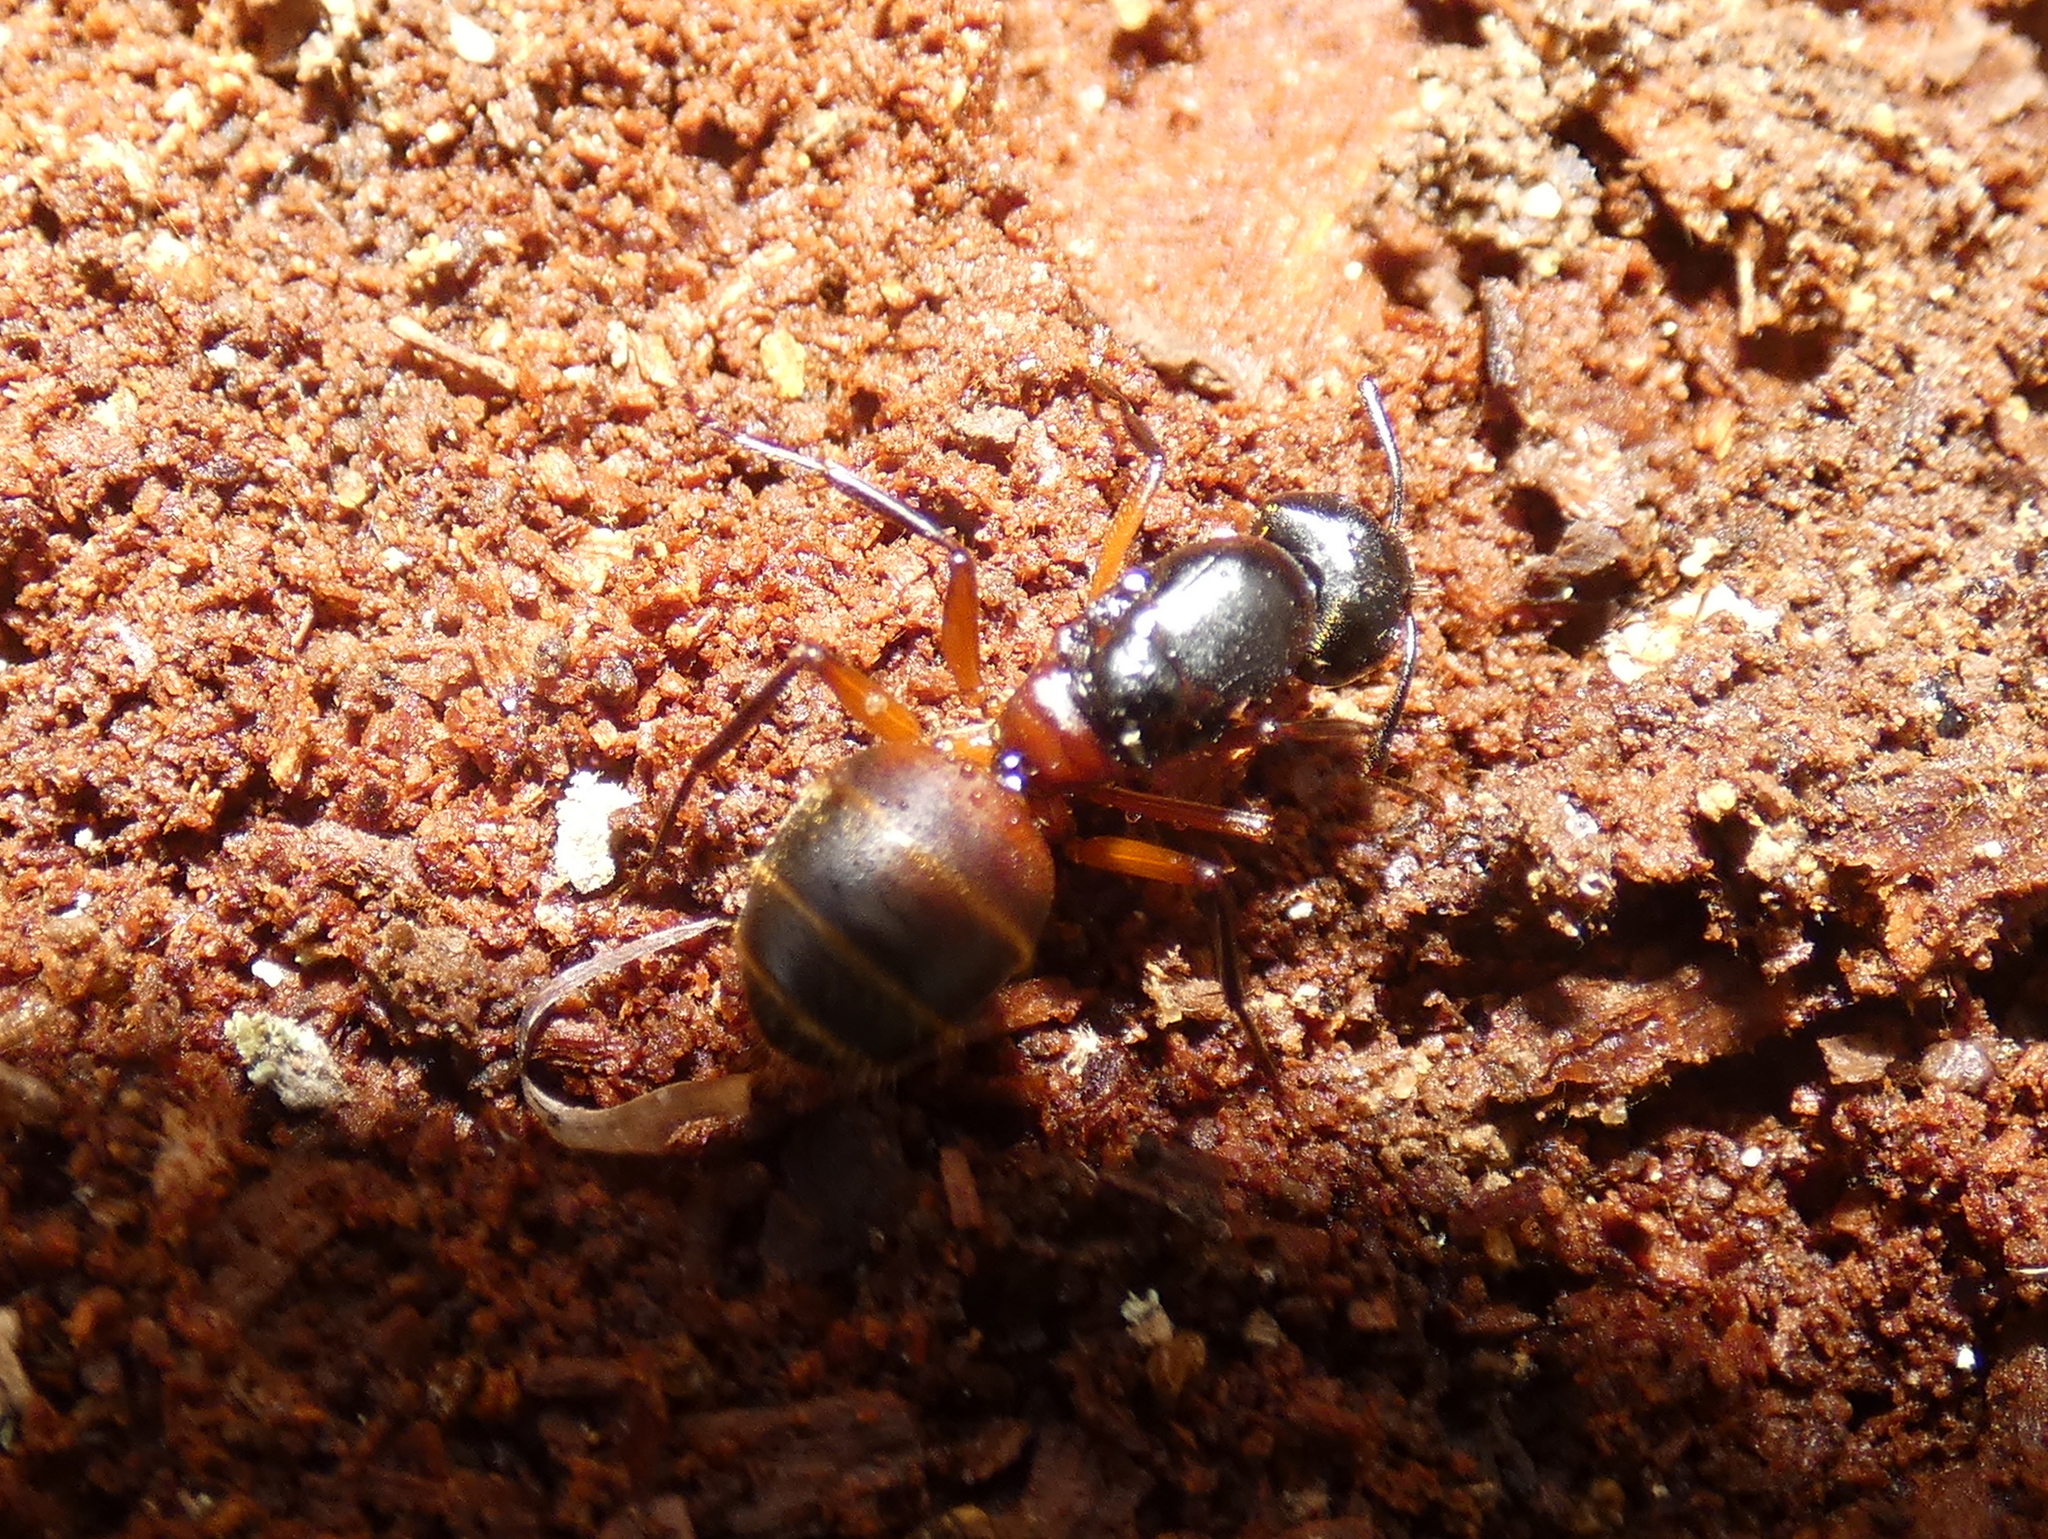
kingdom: Animalia
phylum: Arthropoda
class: Insecta
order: Hymenoptera
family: Formicidae
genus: Camponotus
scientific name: Camponotus chromaiodes
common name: Red carpenter ant
